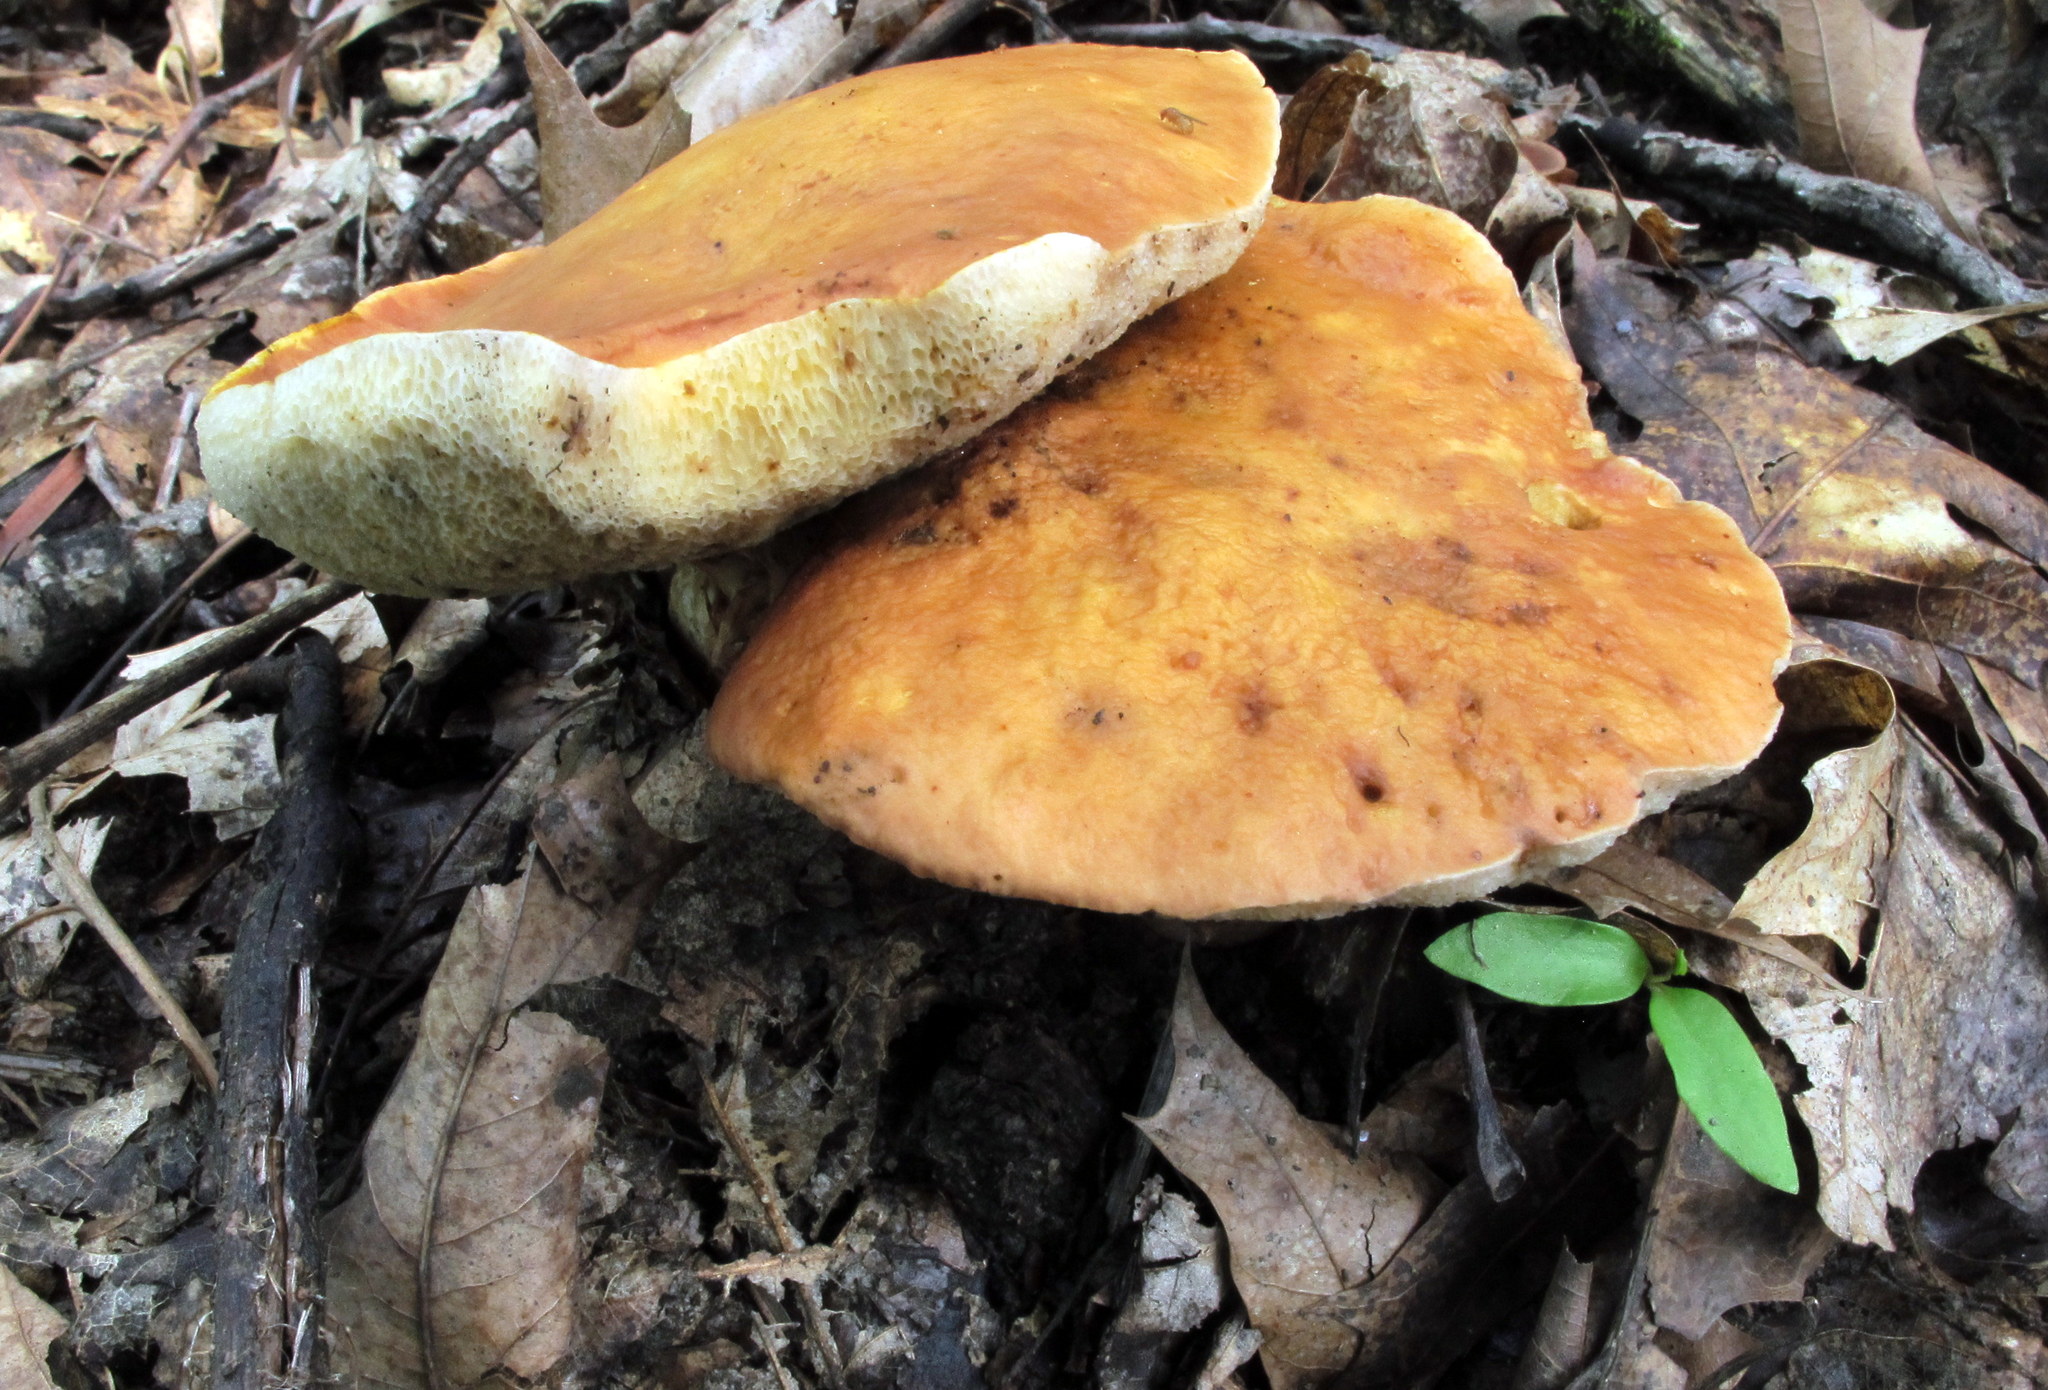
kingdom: Fungi
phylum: Basidiomycota
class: Agaricomycetes
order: Boletales
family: Boletaceae
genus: Xanthoconium
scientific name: Xanthoconium affine
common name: Spotted bolete
